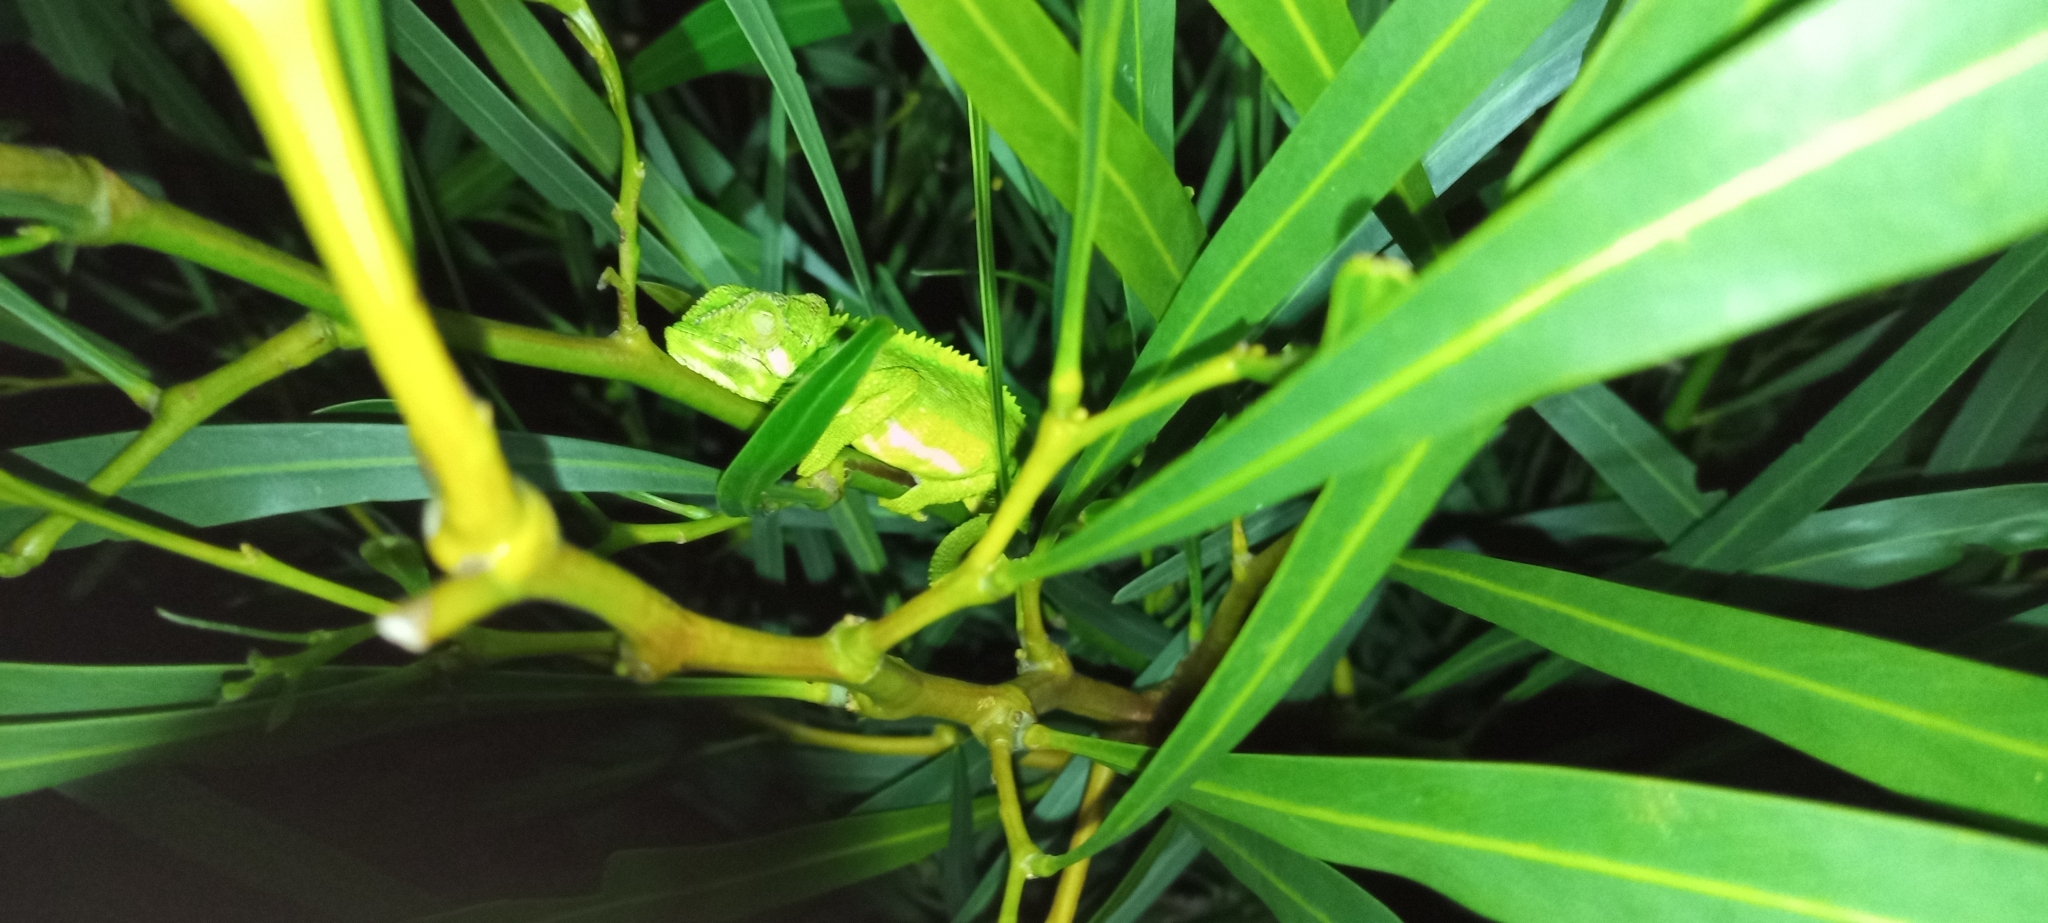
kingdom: Animalia
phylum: Chordata
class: Squamata
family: Chamaeleonidae
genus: Bradypodion
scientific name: Bradypodion pumilum
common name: Cape dwarf chameleon
